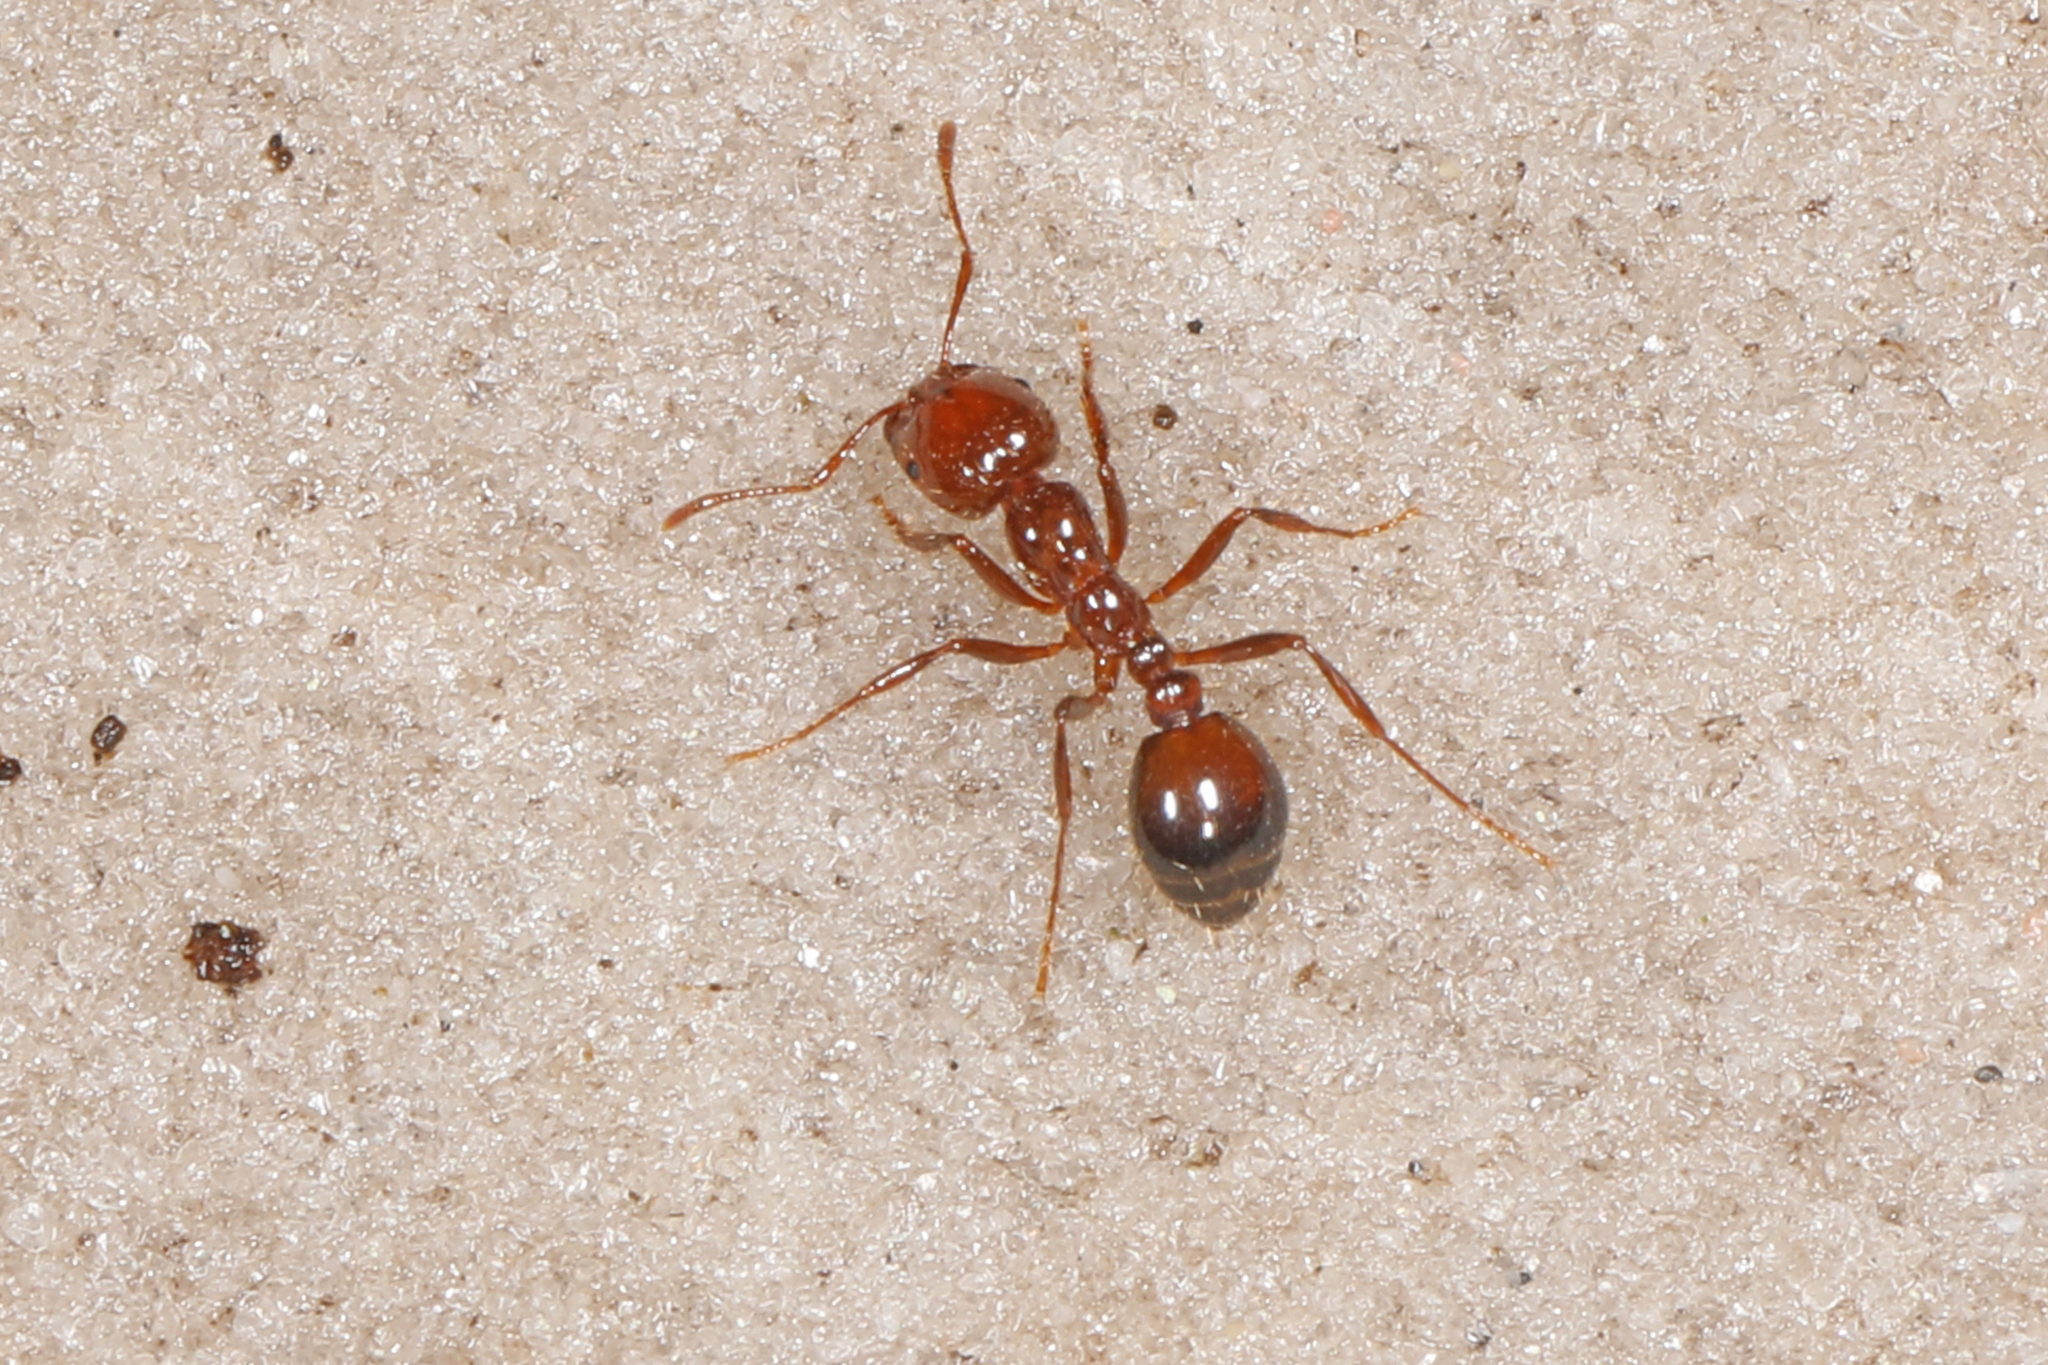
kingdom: Animalia
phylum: Arthropoda
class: Insecta
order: Hymenoptera
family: Formicidae
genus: Solenopsis
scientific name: Solenopsis invicta
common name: Red imported fire ant
